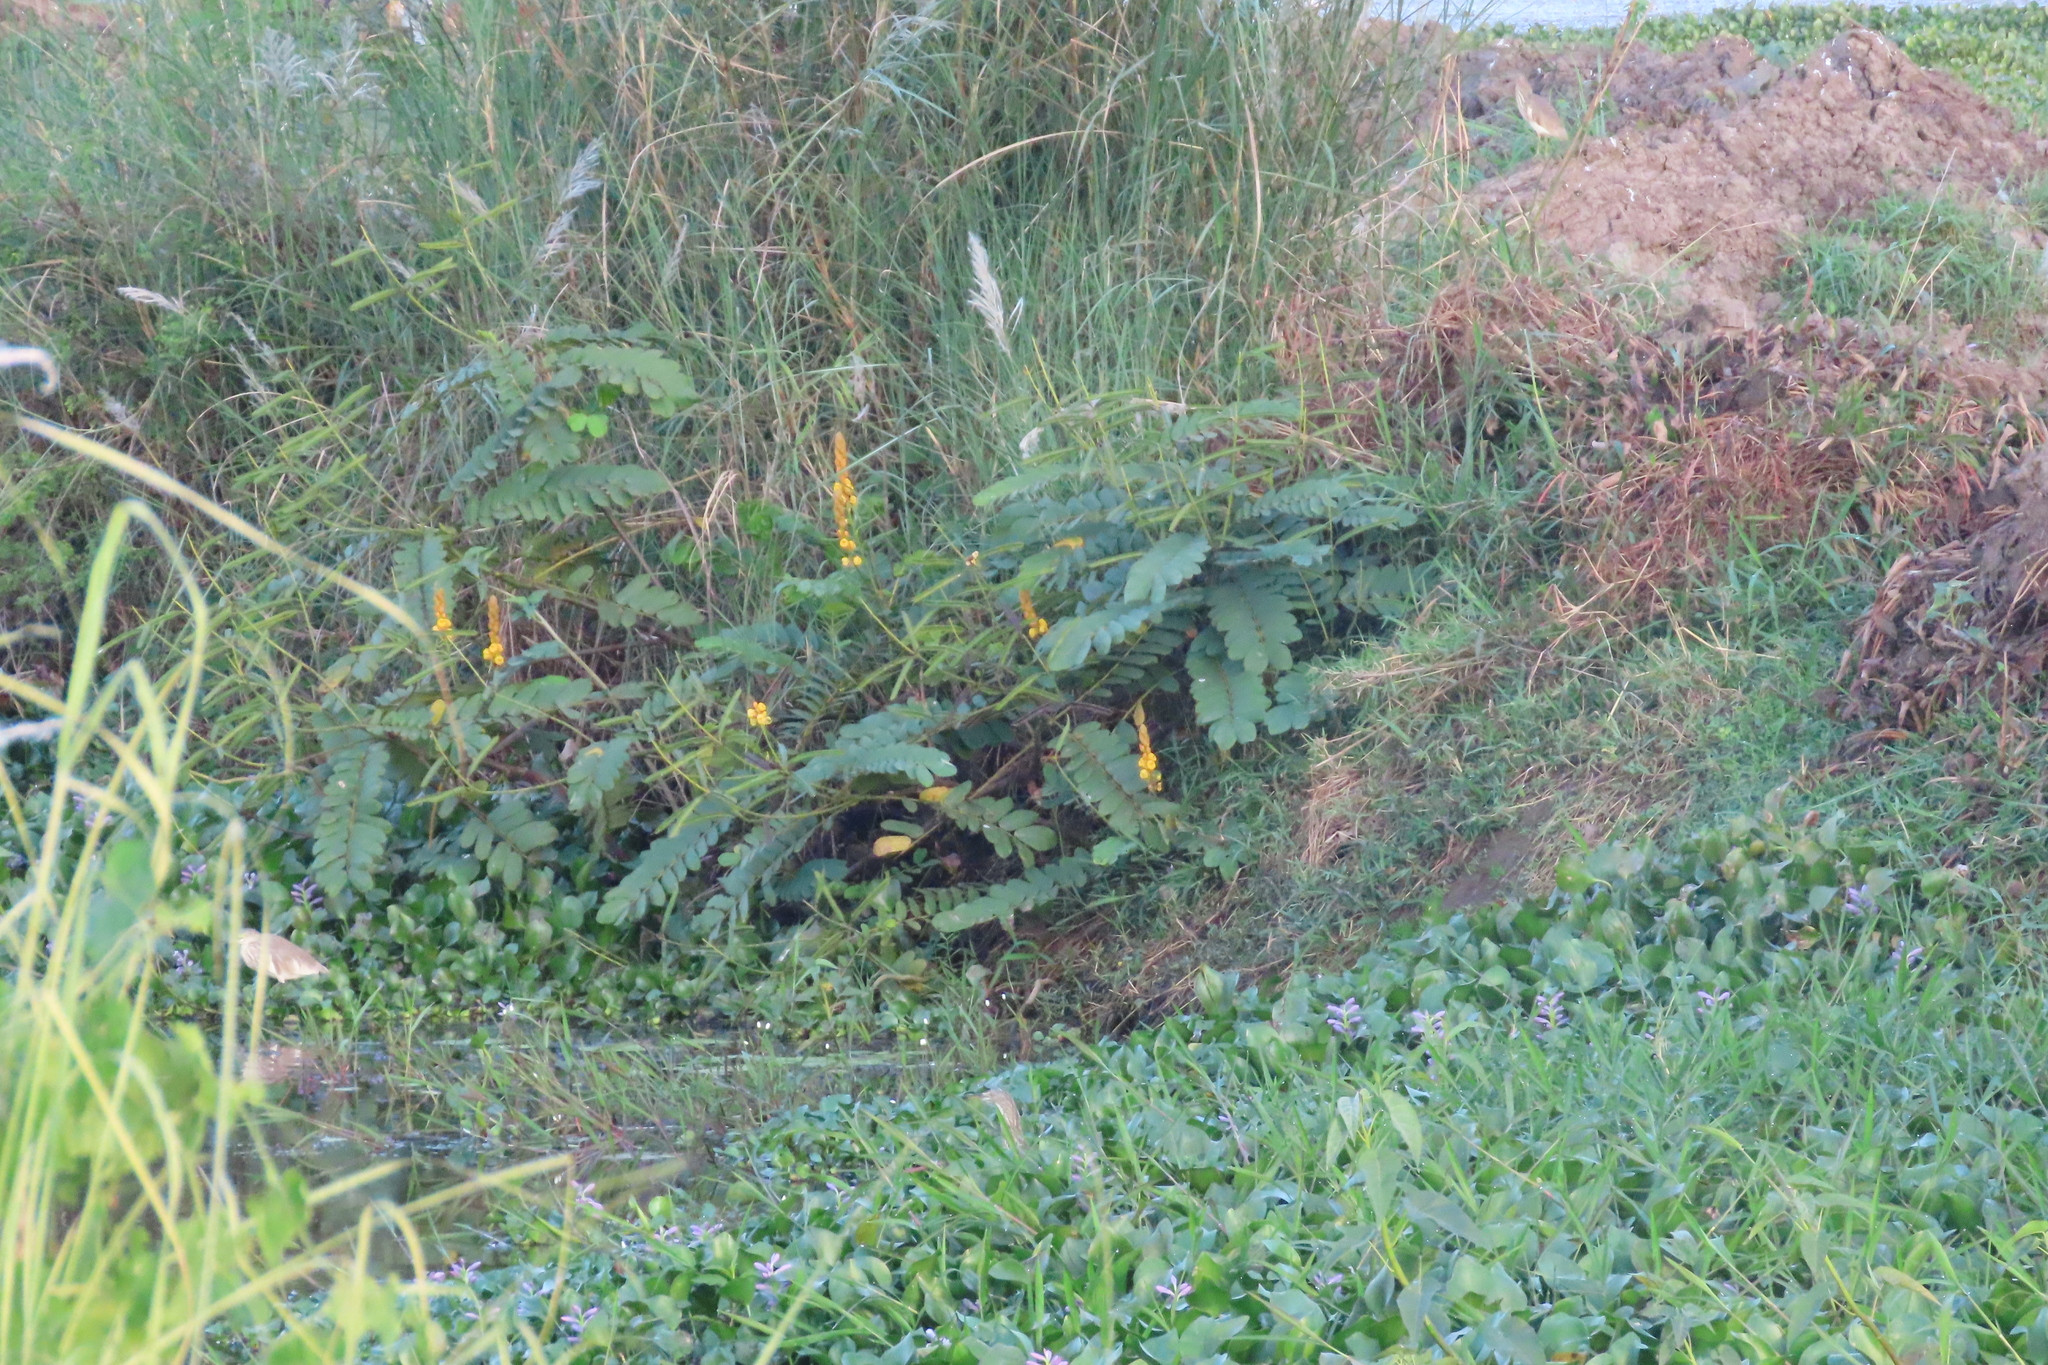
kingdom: Plantae
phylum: Tracheophyta
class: Magnoliopsida
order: Fabales
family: Fabaceae
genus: Senna
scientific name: Senna alata
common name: Emperor's candlesticks
